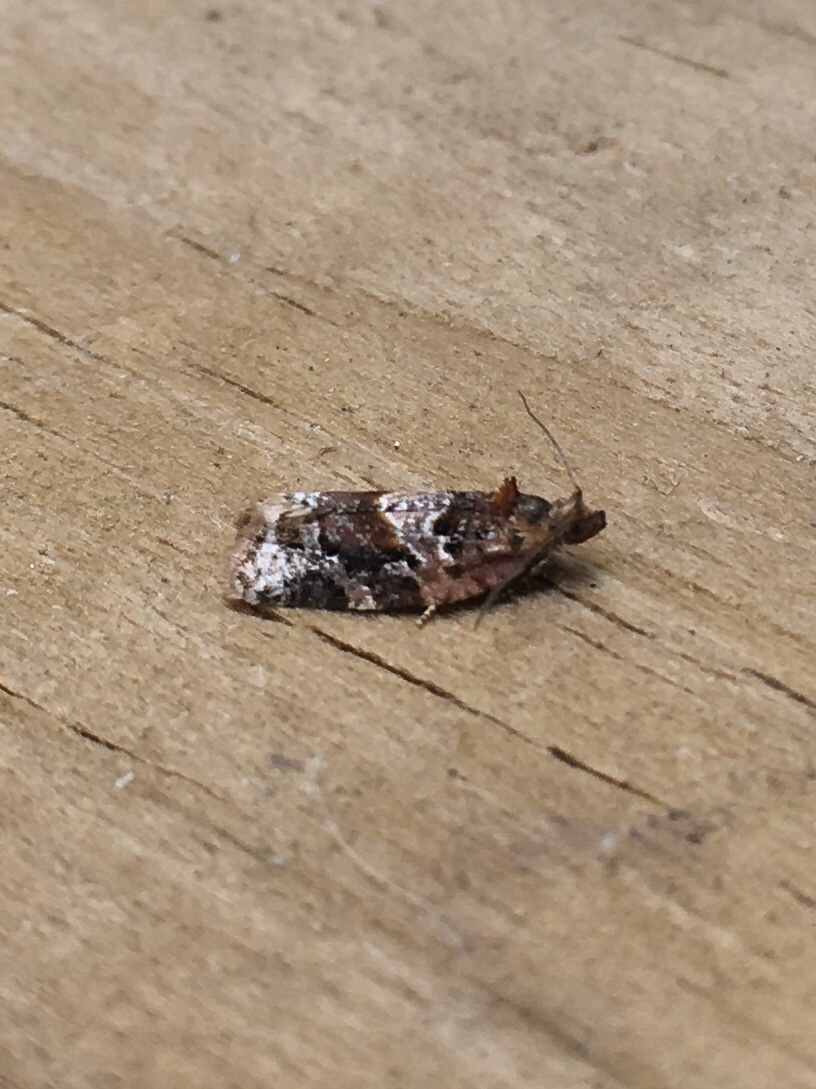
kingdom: Animalia
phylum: Arthropoda
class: Insecta
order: Lepidoptera
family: Tortricidae
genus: Argyrotaenia
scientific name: Argyrotaenia velutinana
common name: Red-banded leafroller moth
